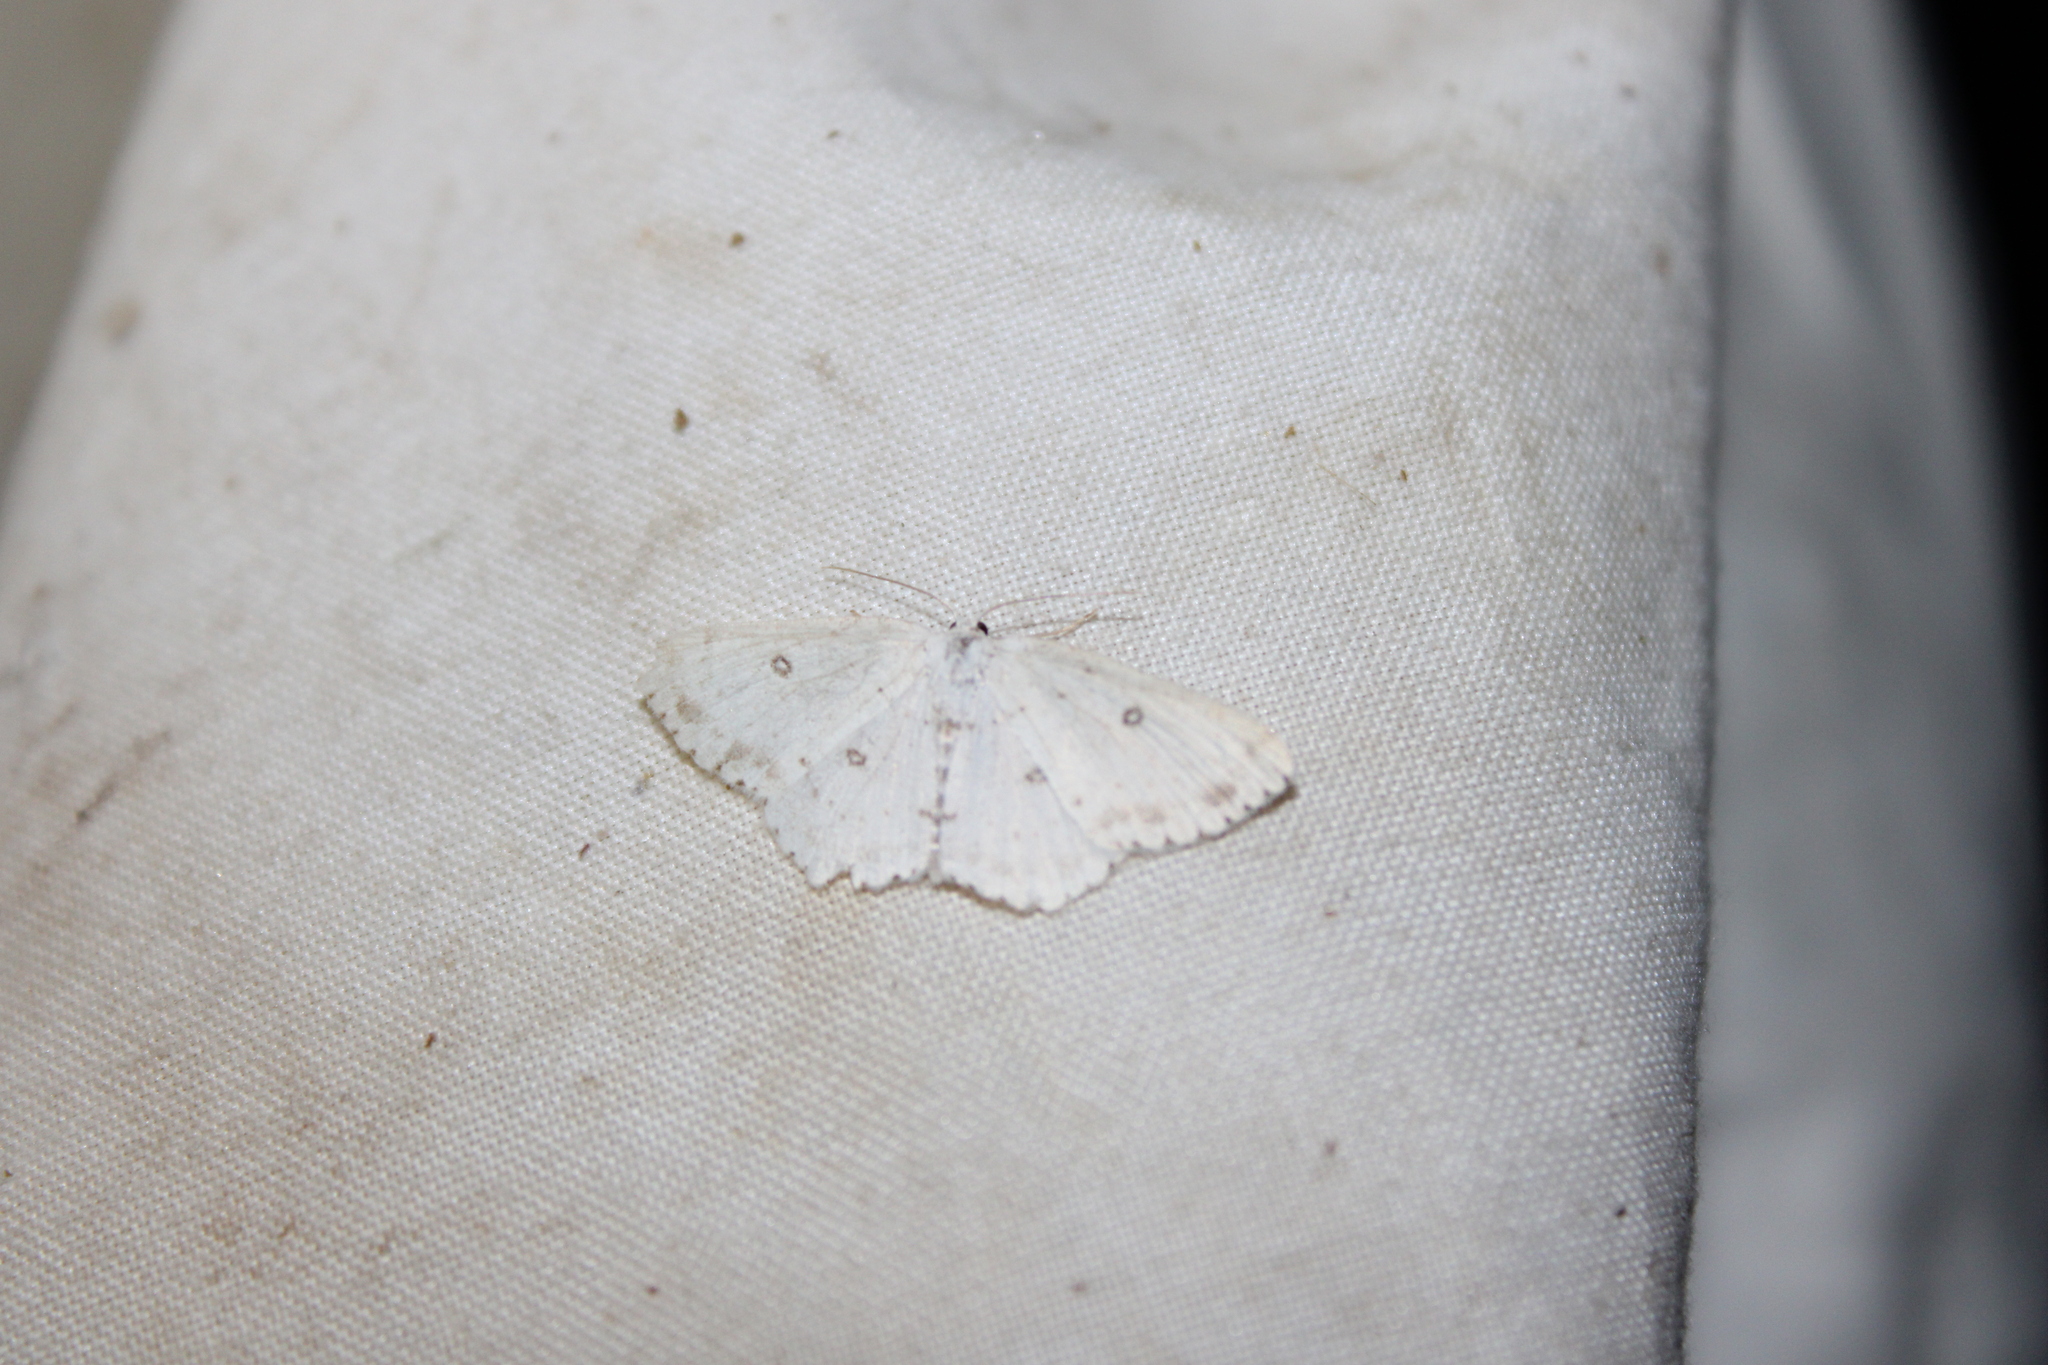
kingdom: Animalia
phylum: Arthropoda
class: Insecta
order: Lepidoptera
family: Geometridae
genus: Cyclophora
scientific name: Cyclophora pendulinaria
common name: Sweet fern geometer
